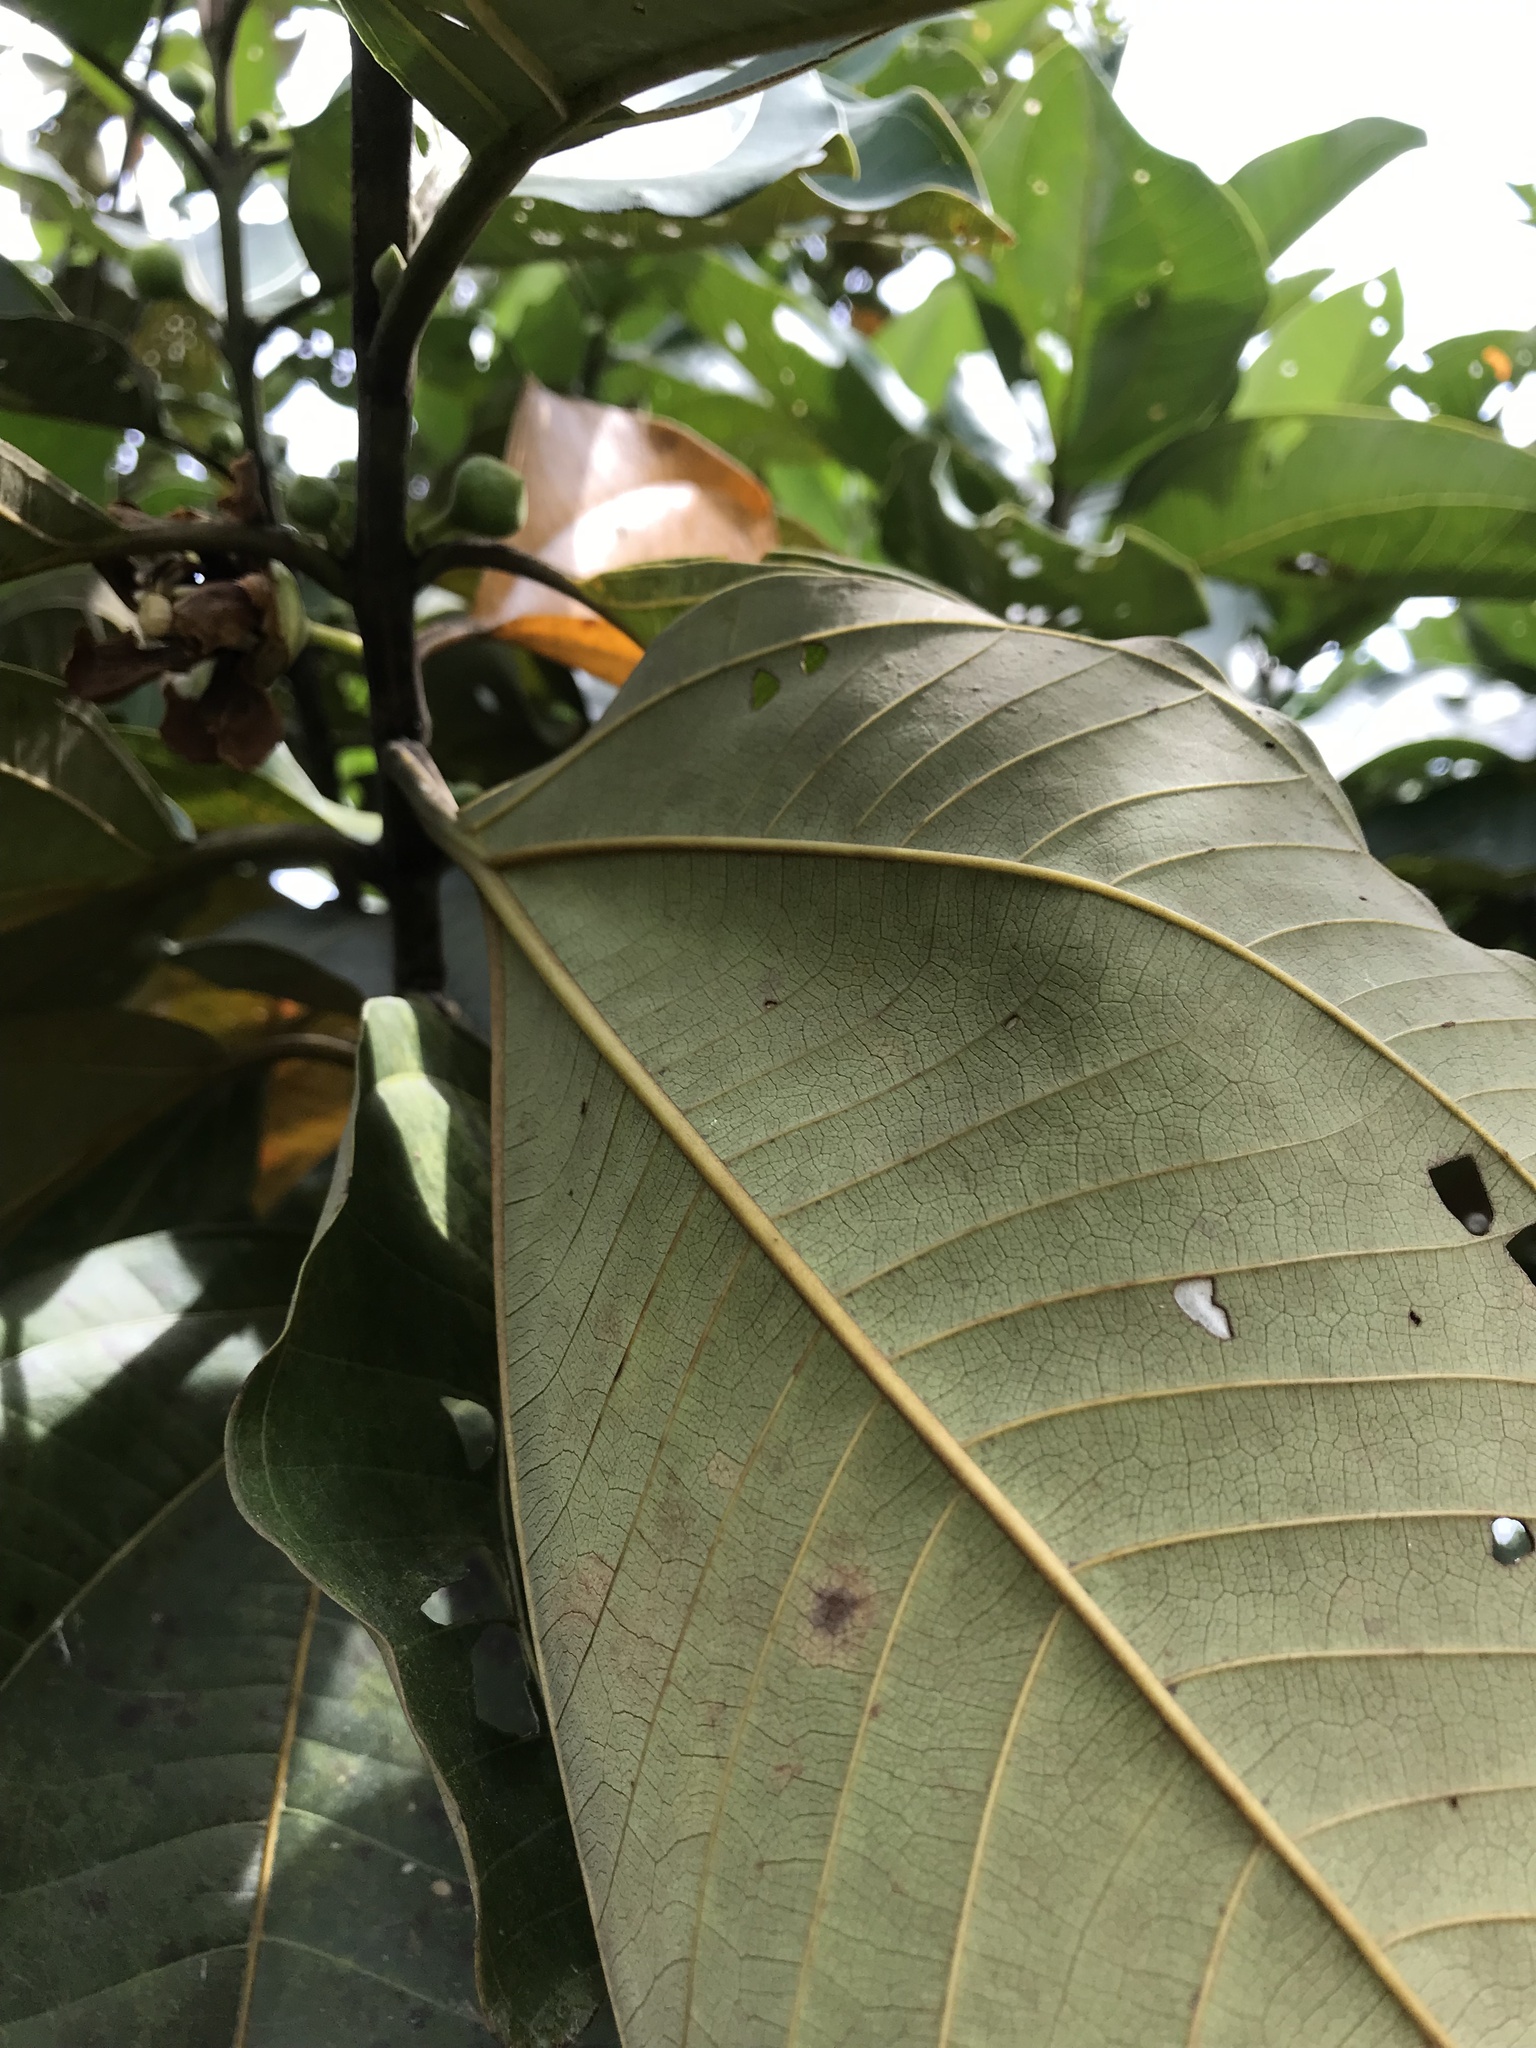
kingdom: Plantae
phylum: Tracheophyta
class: Magnoliopsida
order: Myrtales
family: Melastomataceae
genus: Bellucia
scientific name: Bellucia grossularioides
